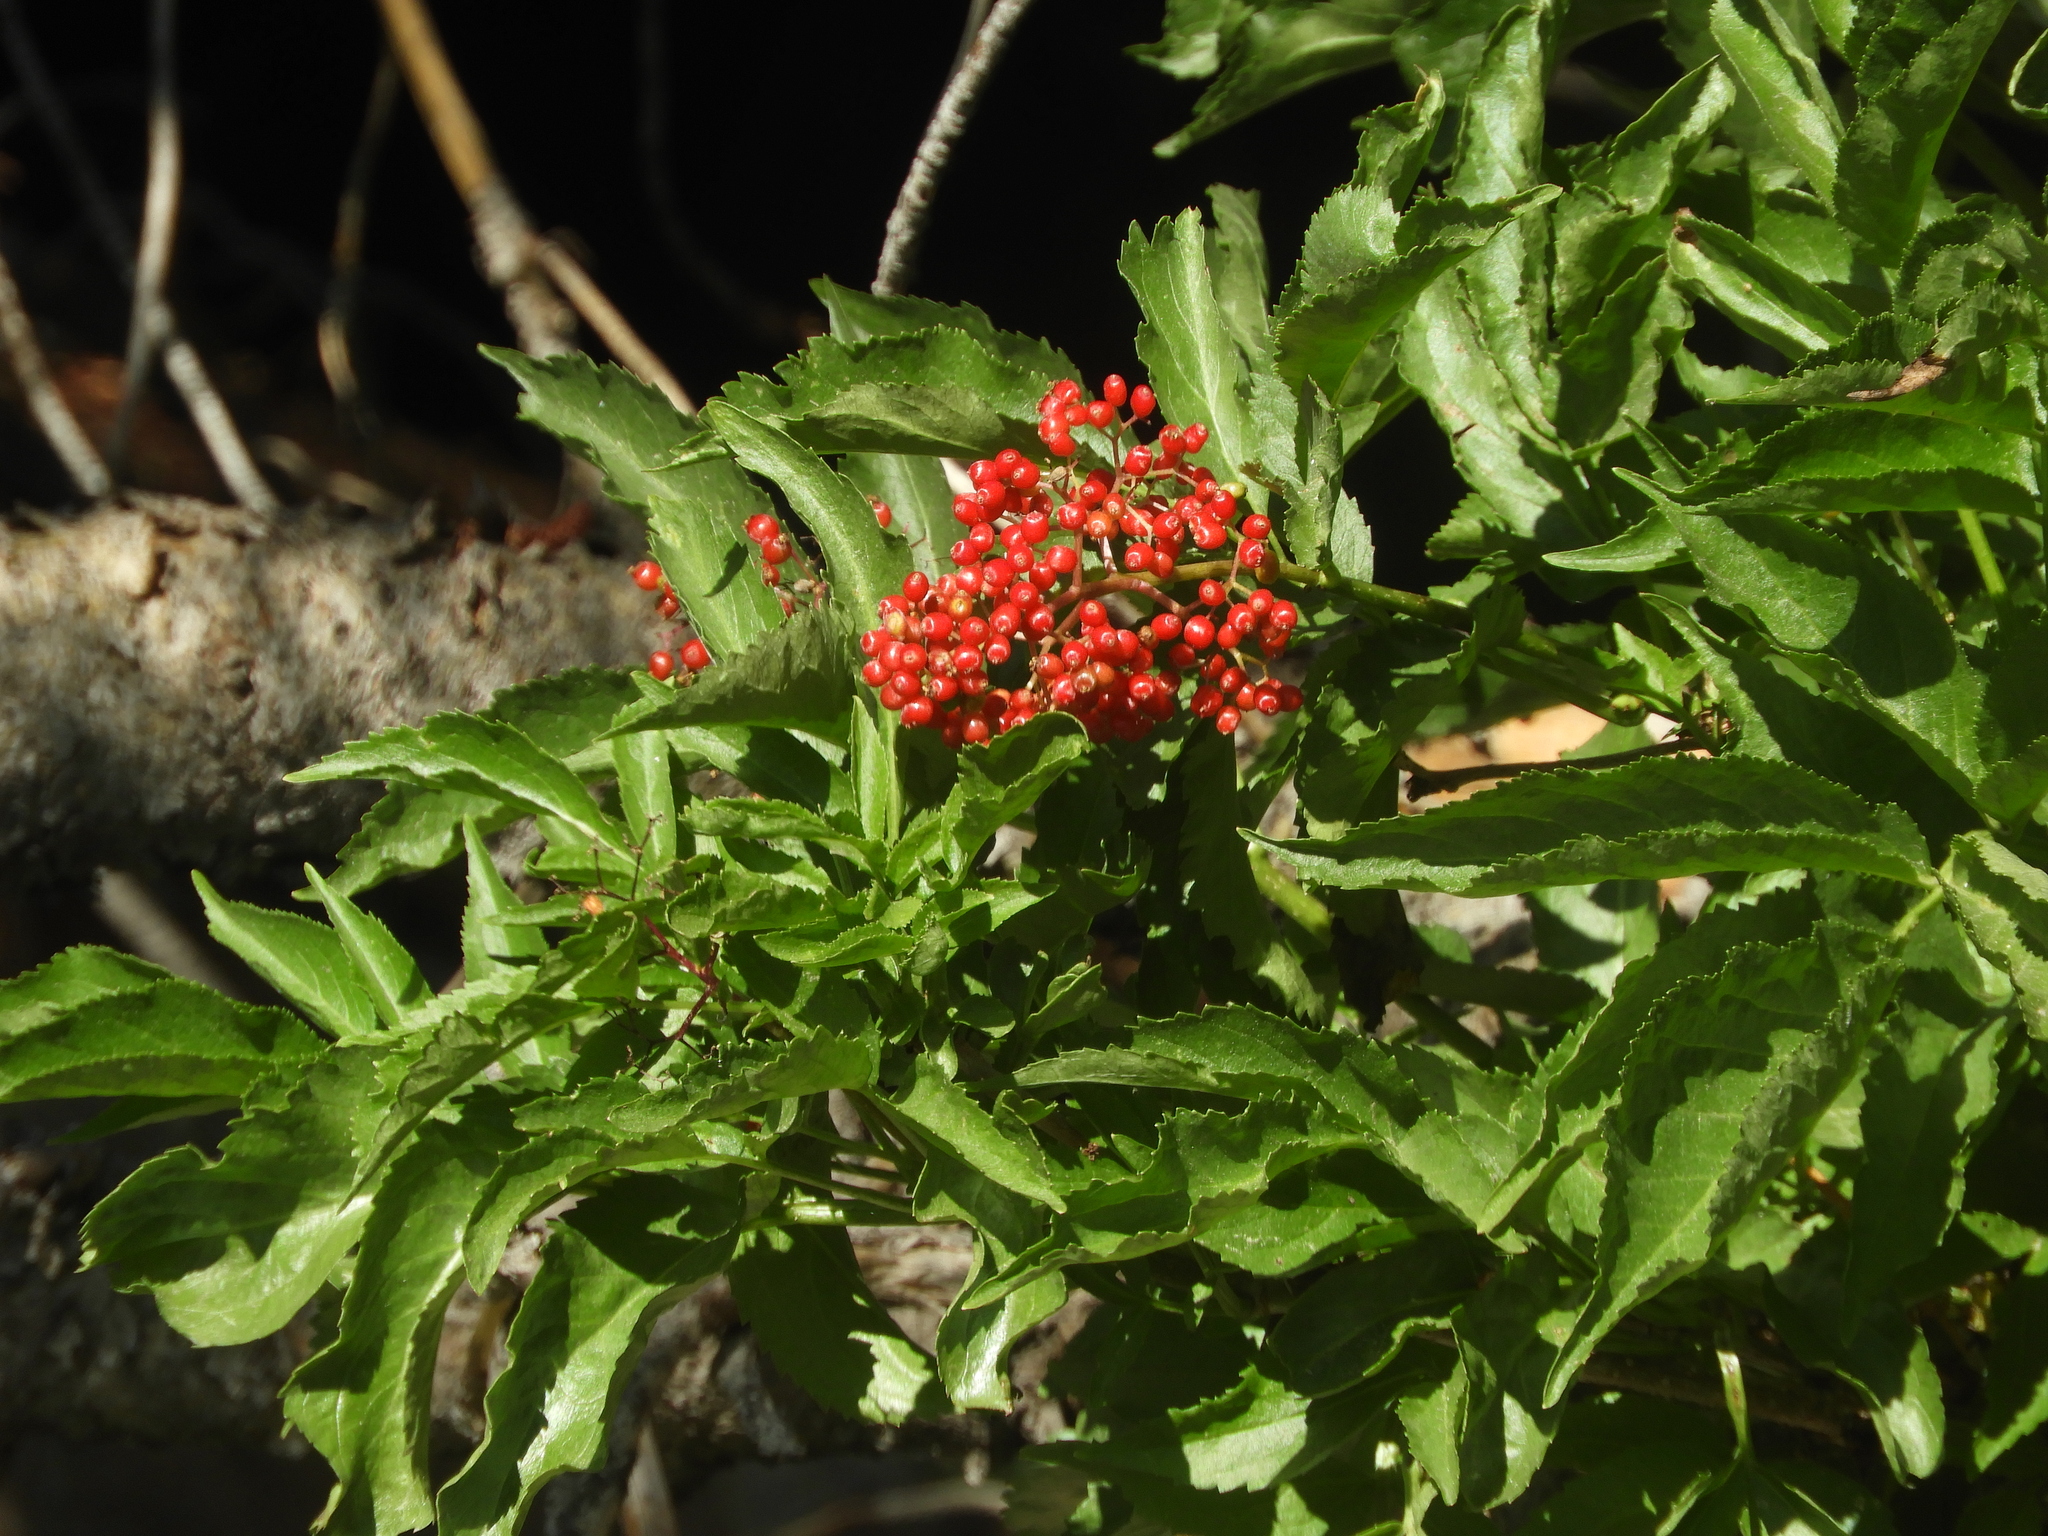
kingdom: Plantae
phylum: Tracheophyta
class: Magnoliopsida
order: Dipsacales
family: Viburnaceae
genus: Sambucus
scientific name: Sambucus racemosa
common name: Red-berried elder
